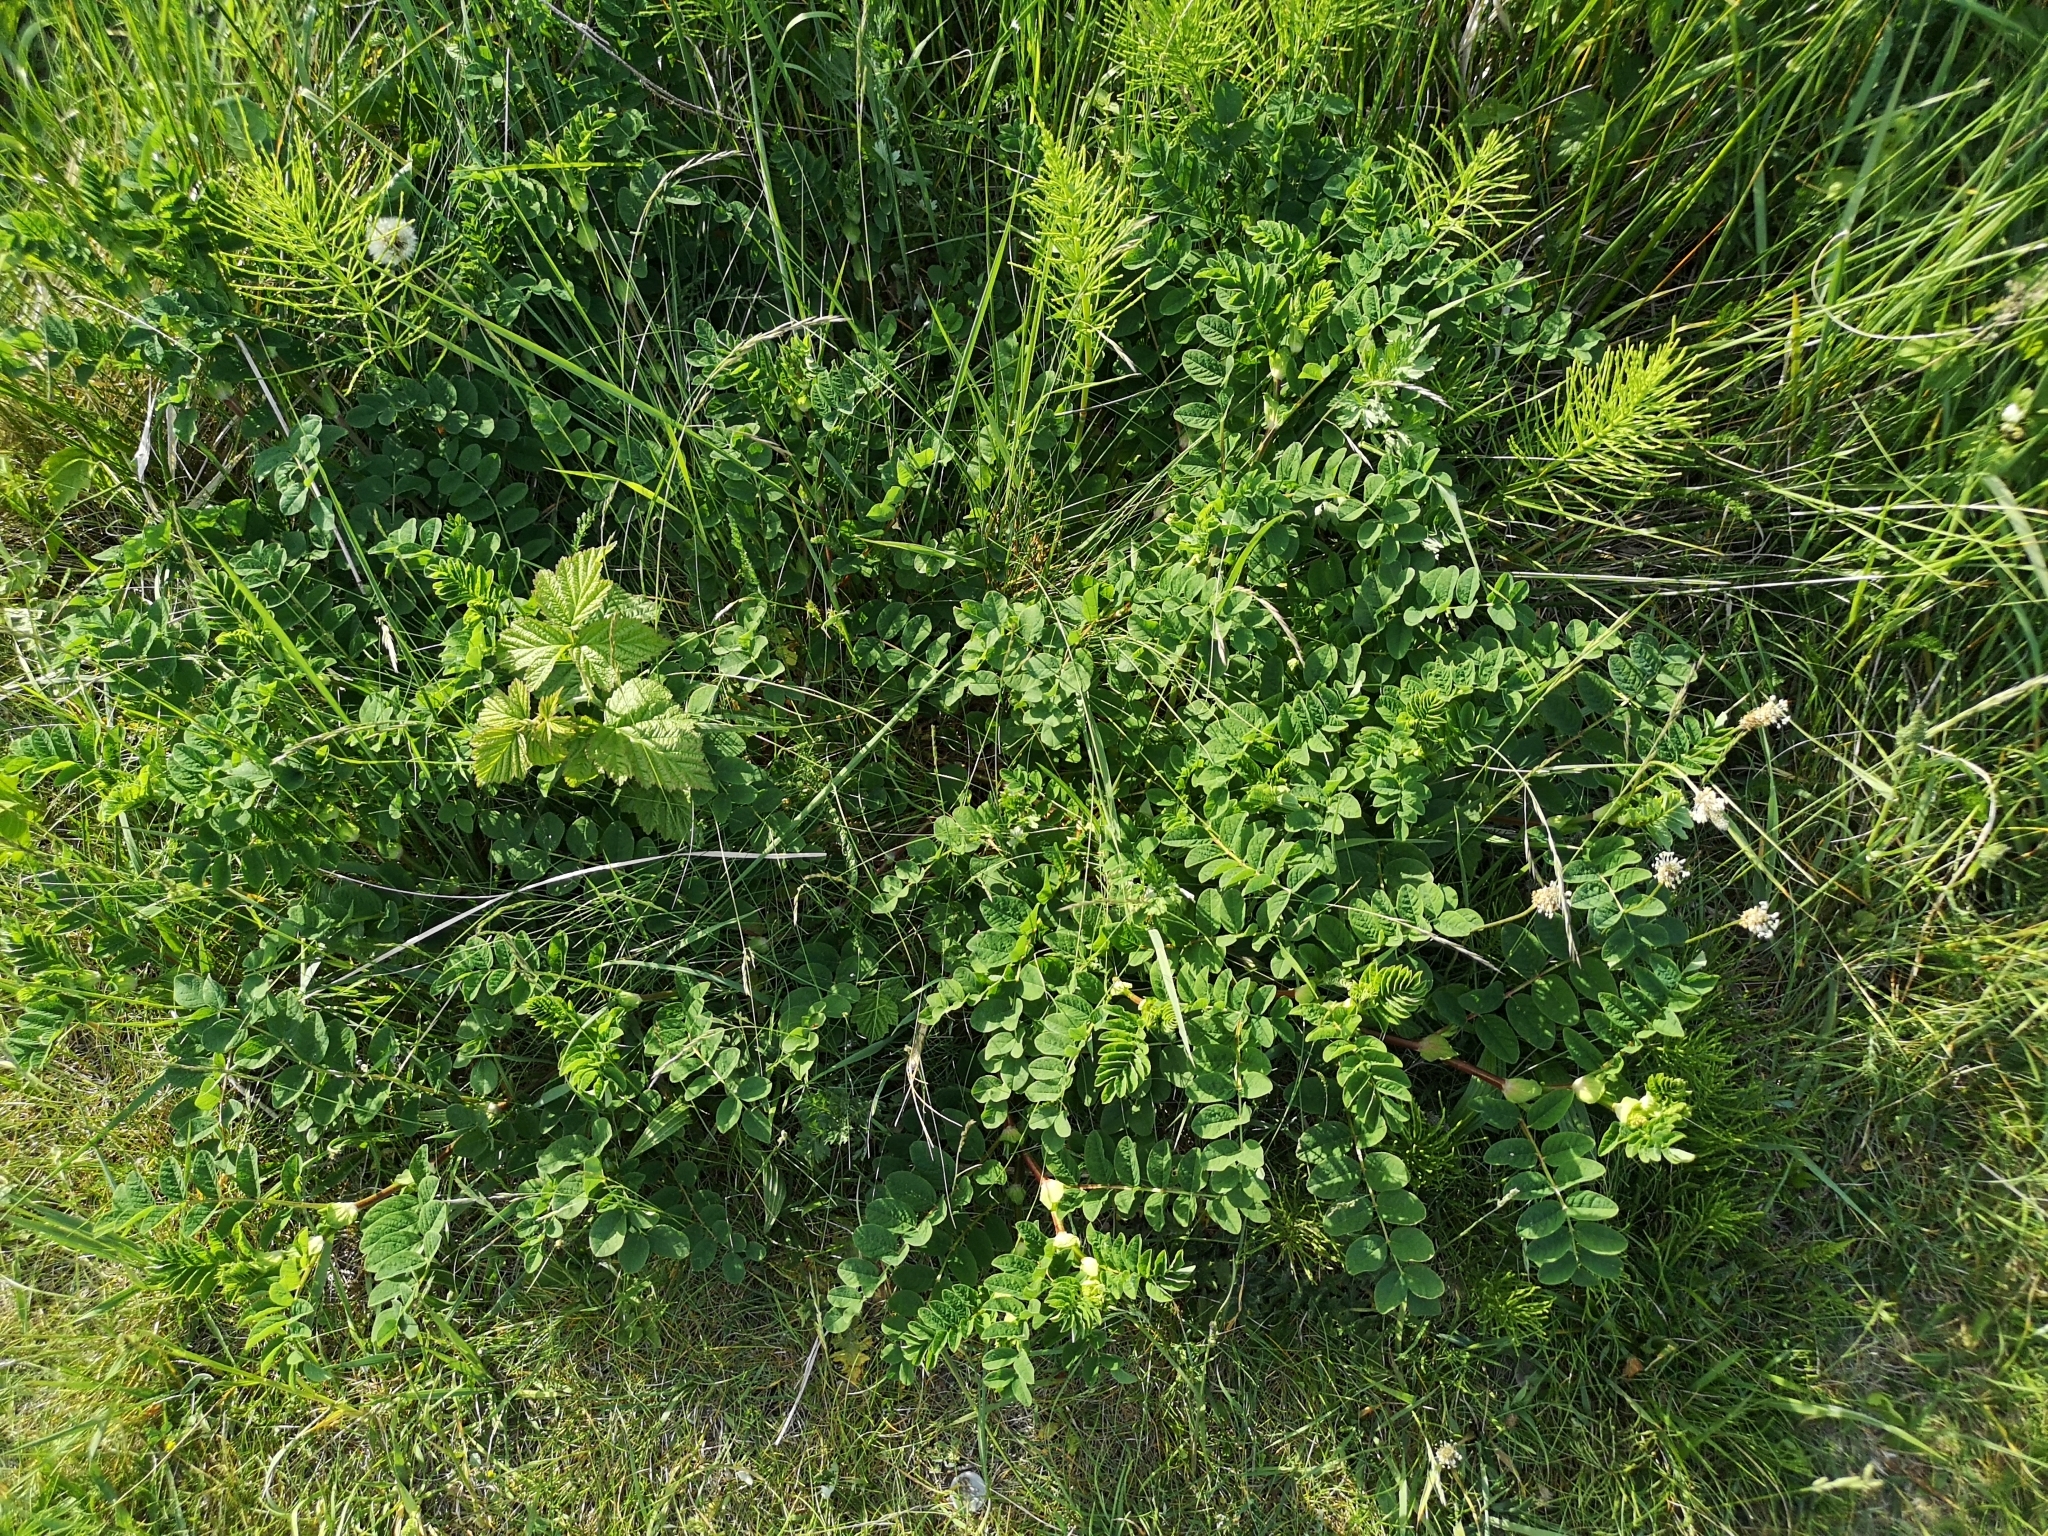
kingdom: Plantae
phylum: Tracheophyta
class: Magnoliopsida
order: Fabales
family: Fabaceae
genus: Astragalus
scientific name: Astragalus glycyphyllos
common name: Wild liquorice
